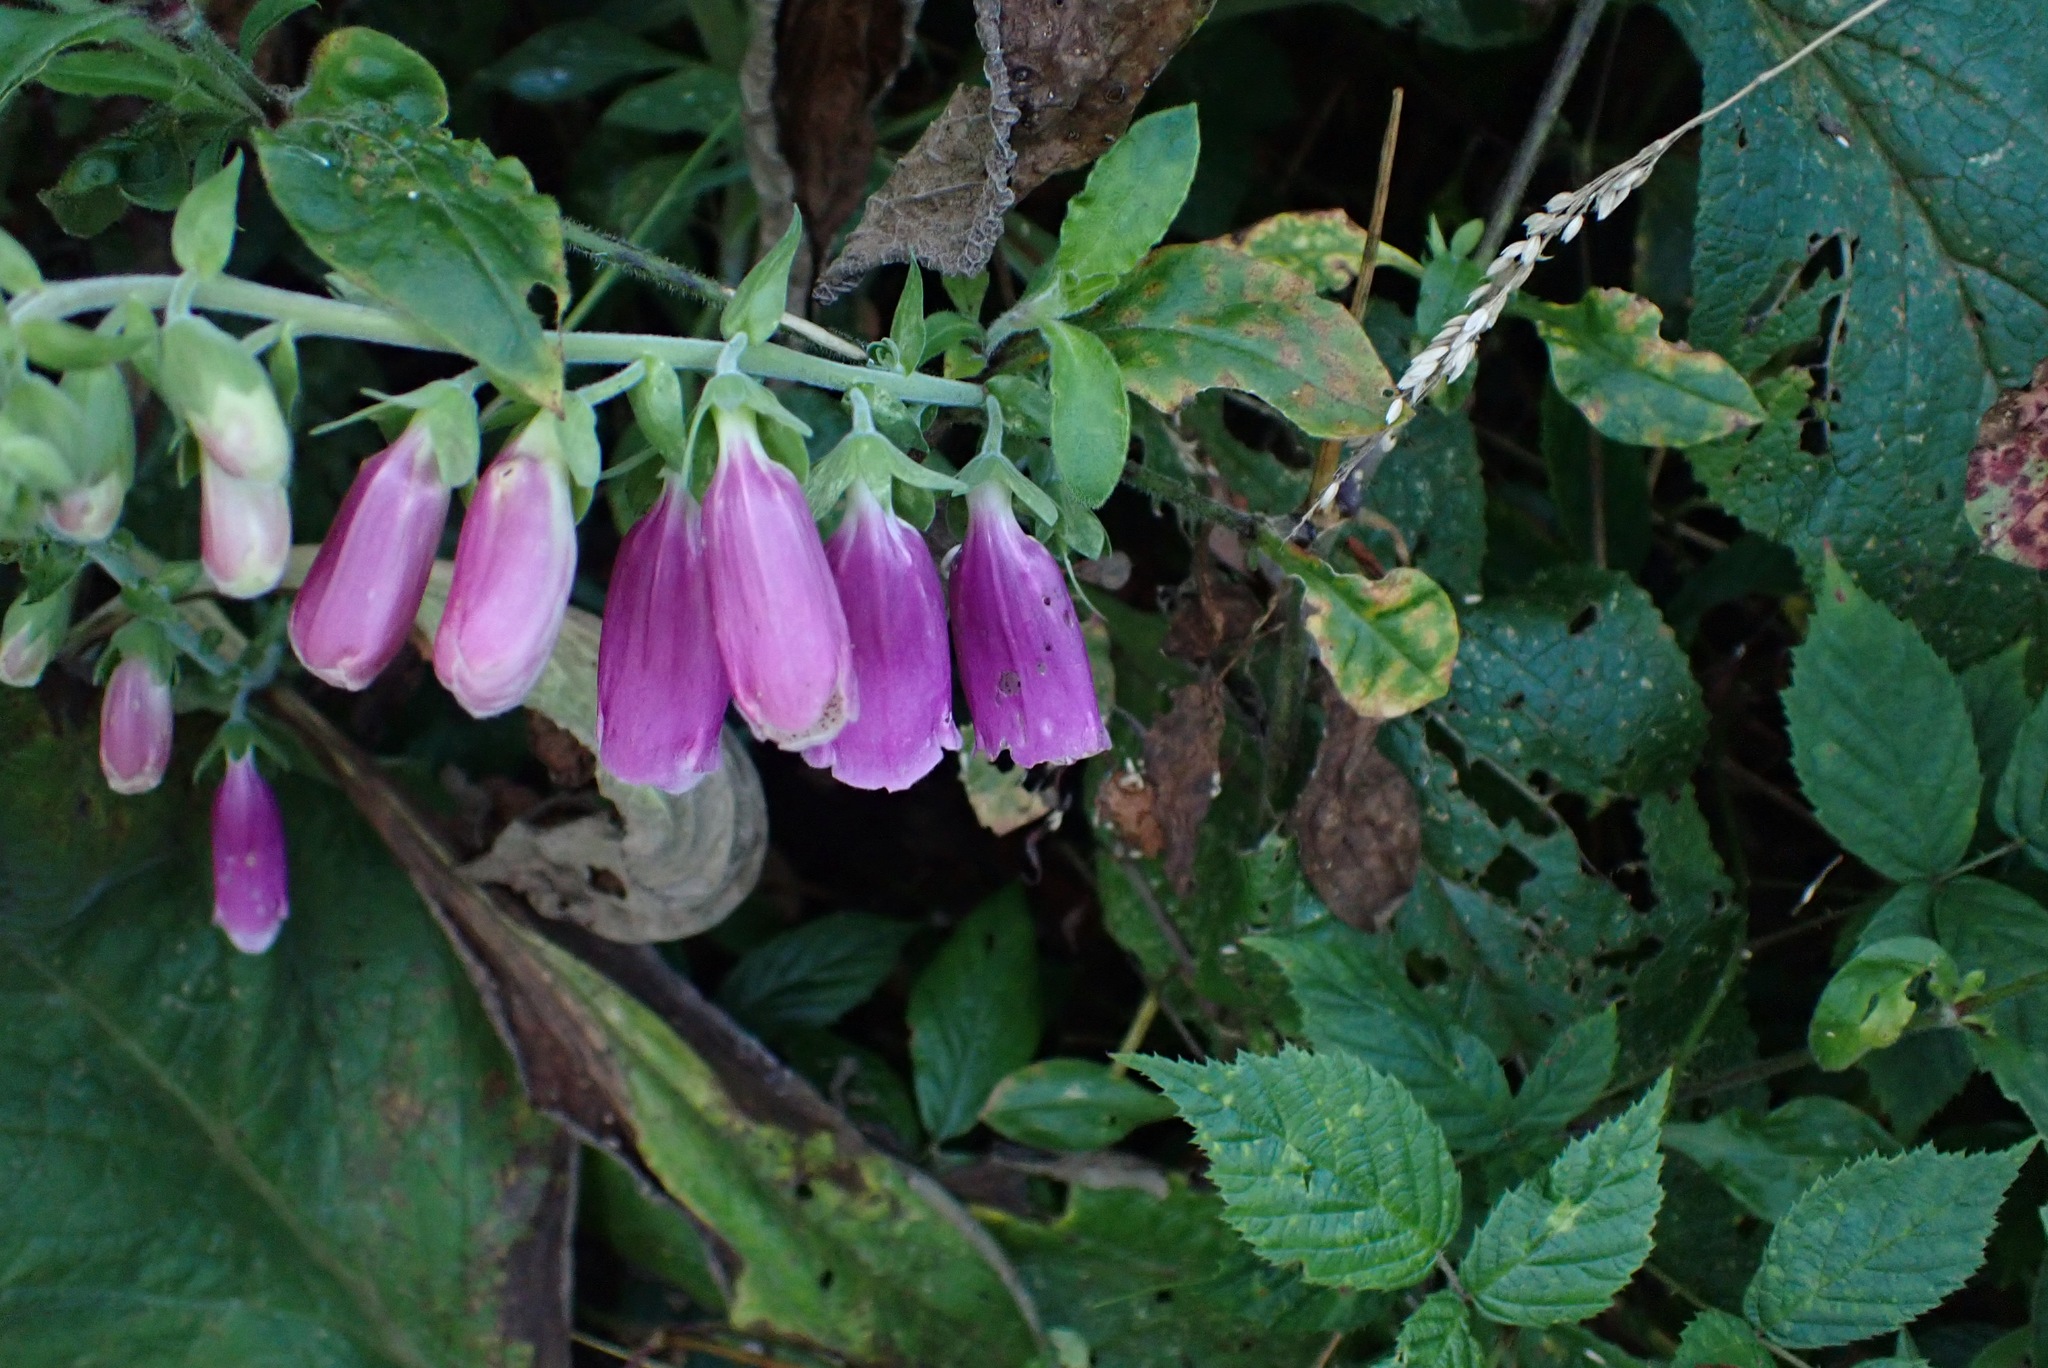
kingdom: Plantae
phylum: Tracheophyta
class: Magnoliopsida
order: Lamiales
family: Plantaginaceae
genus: Digitalis
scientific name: Digitalis purpurea
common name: Foxglove
